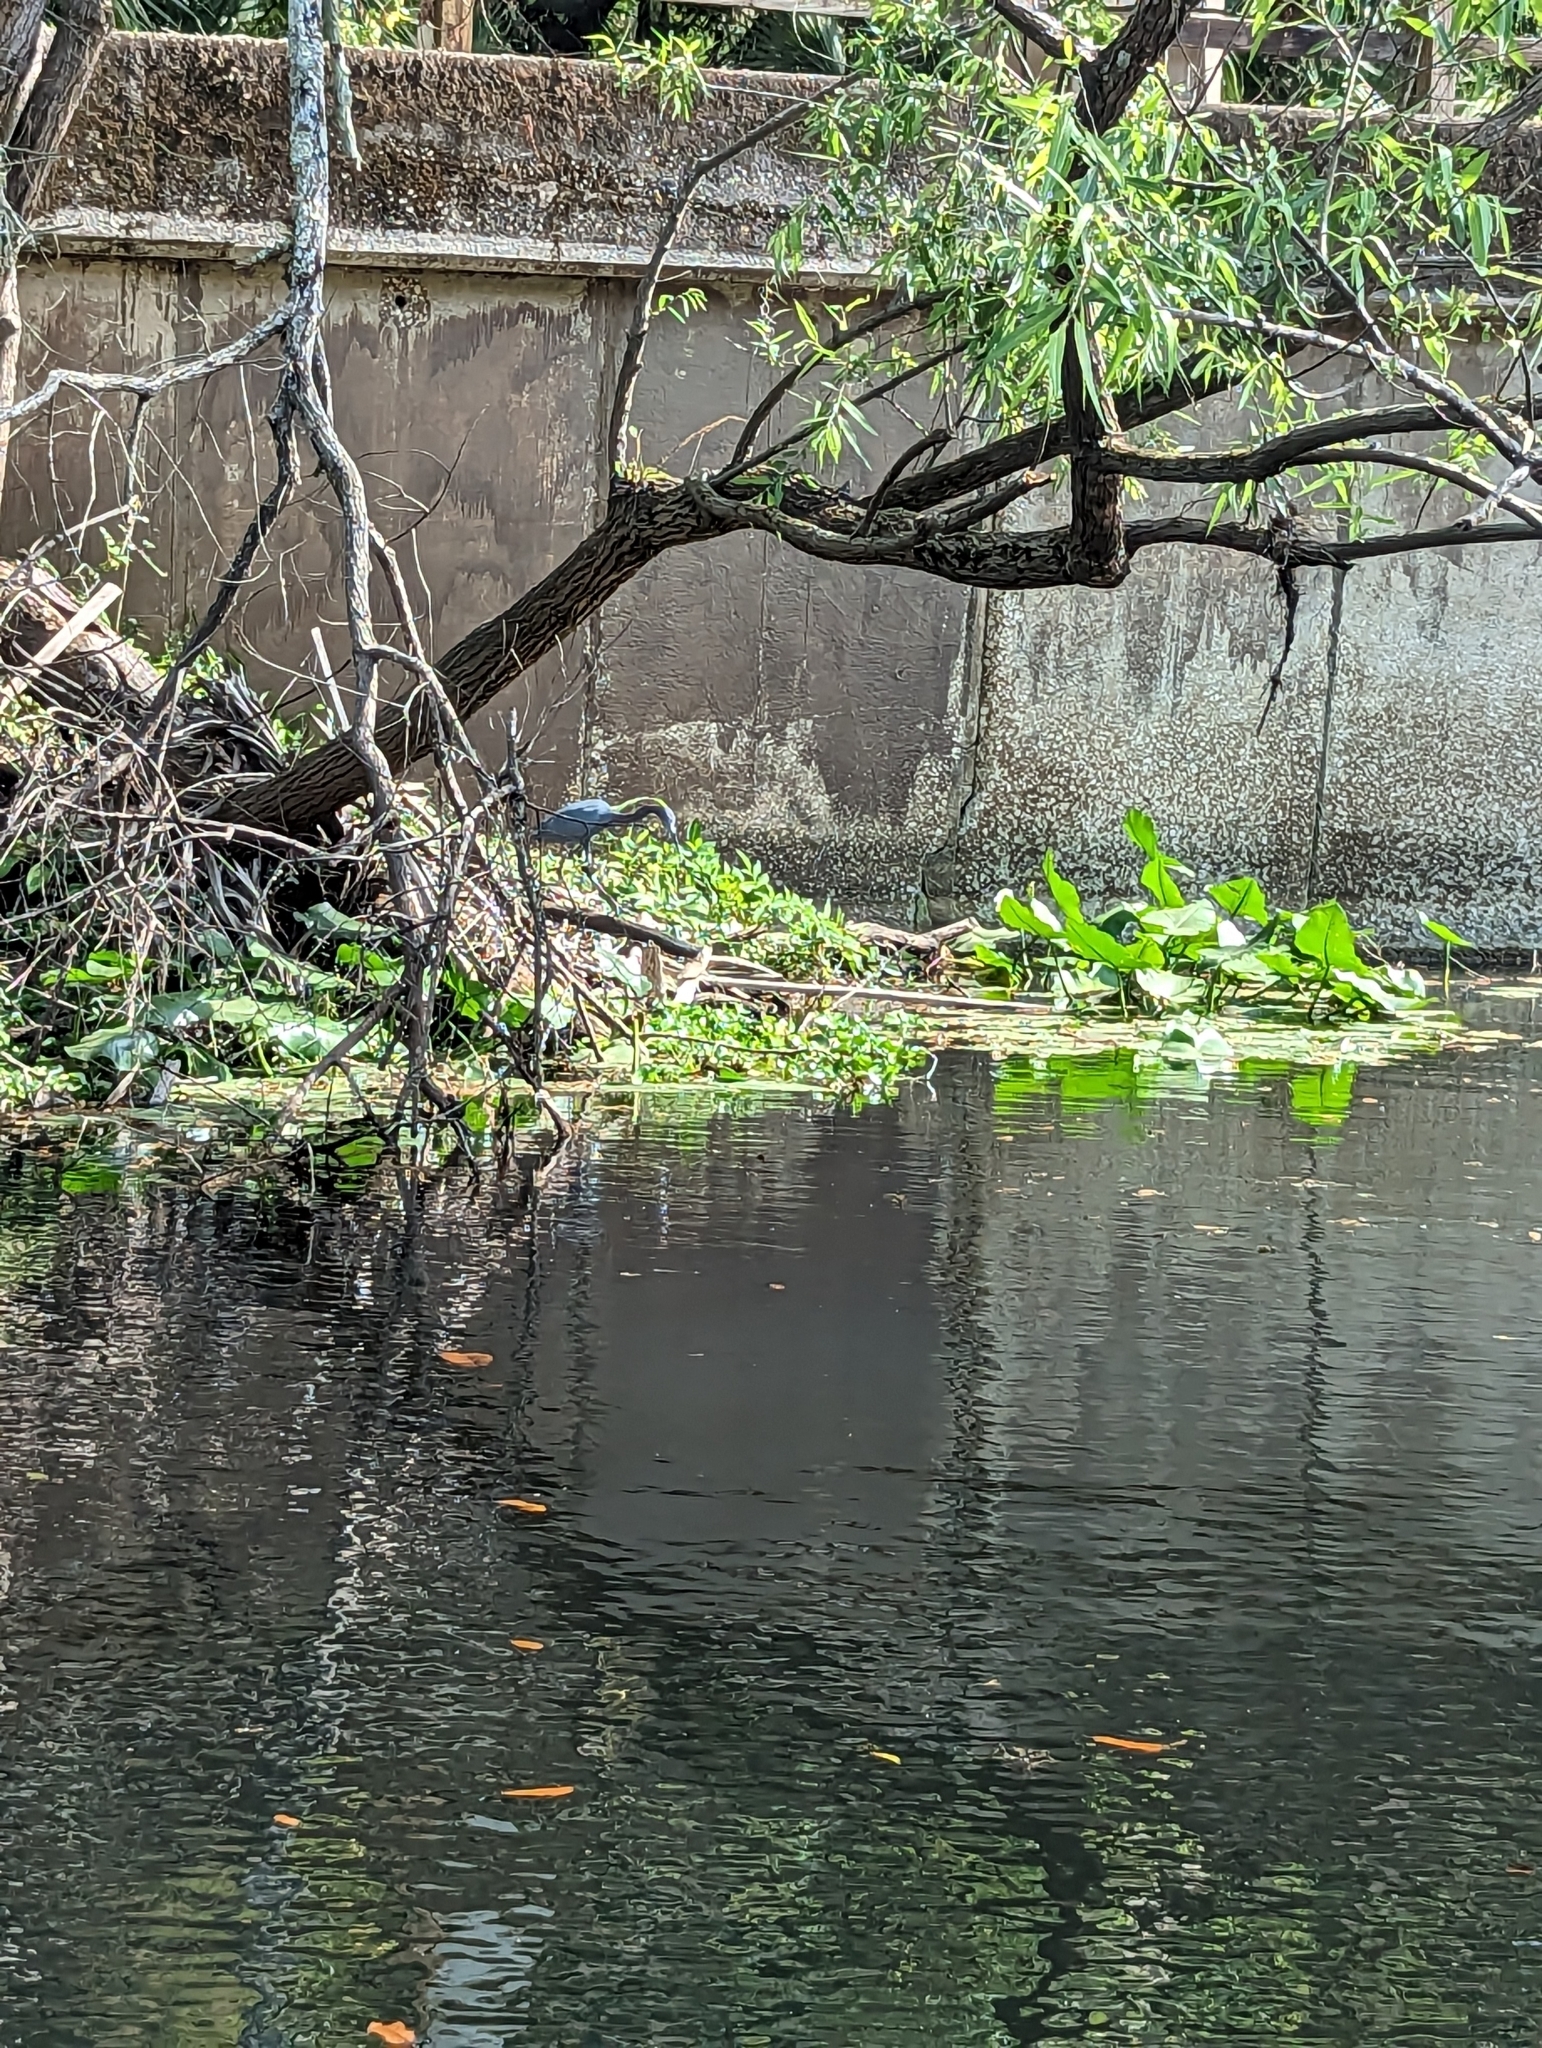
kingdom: Animalia
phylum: Chordata
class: Aves
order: Pelecaniformes
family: Ardeidae
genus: Egretta
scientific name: Egretta caerulea
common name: Little blue heron
